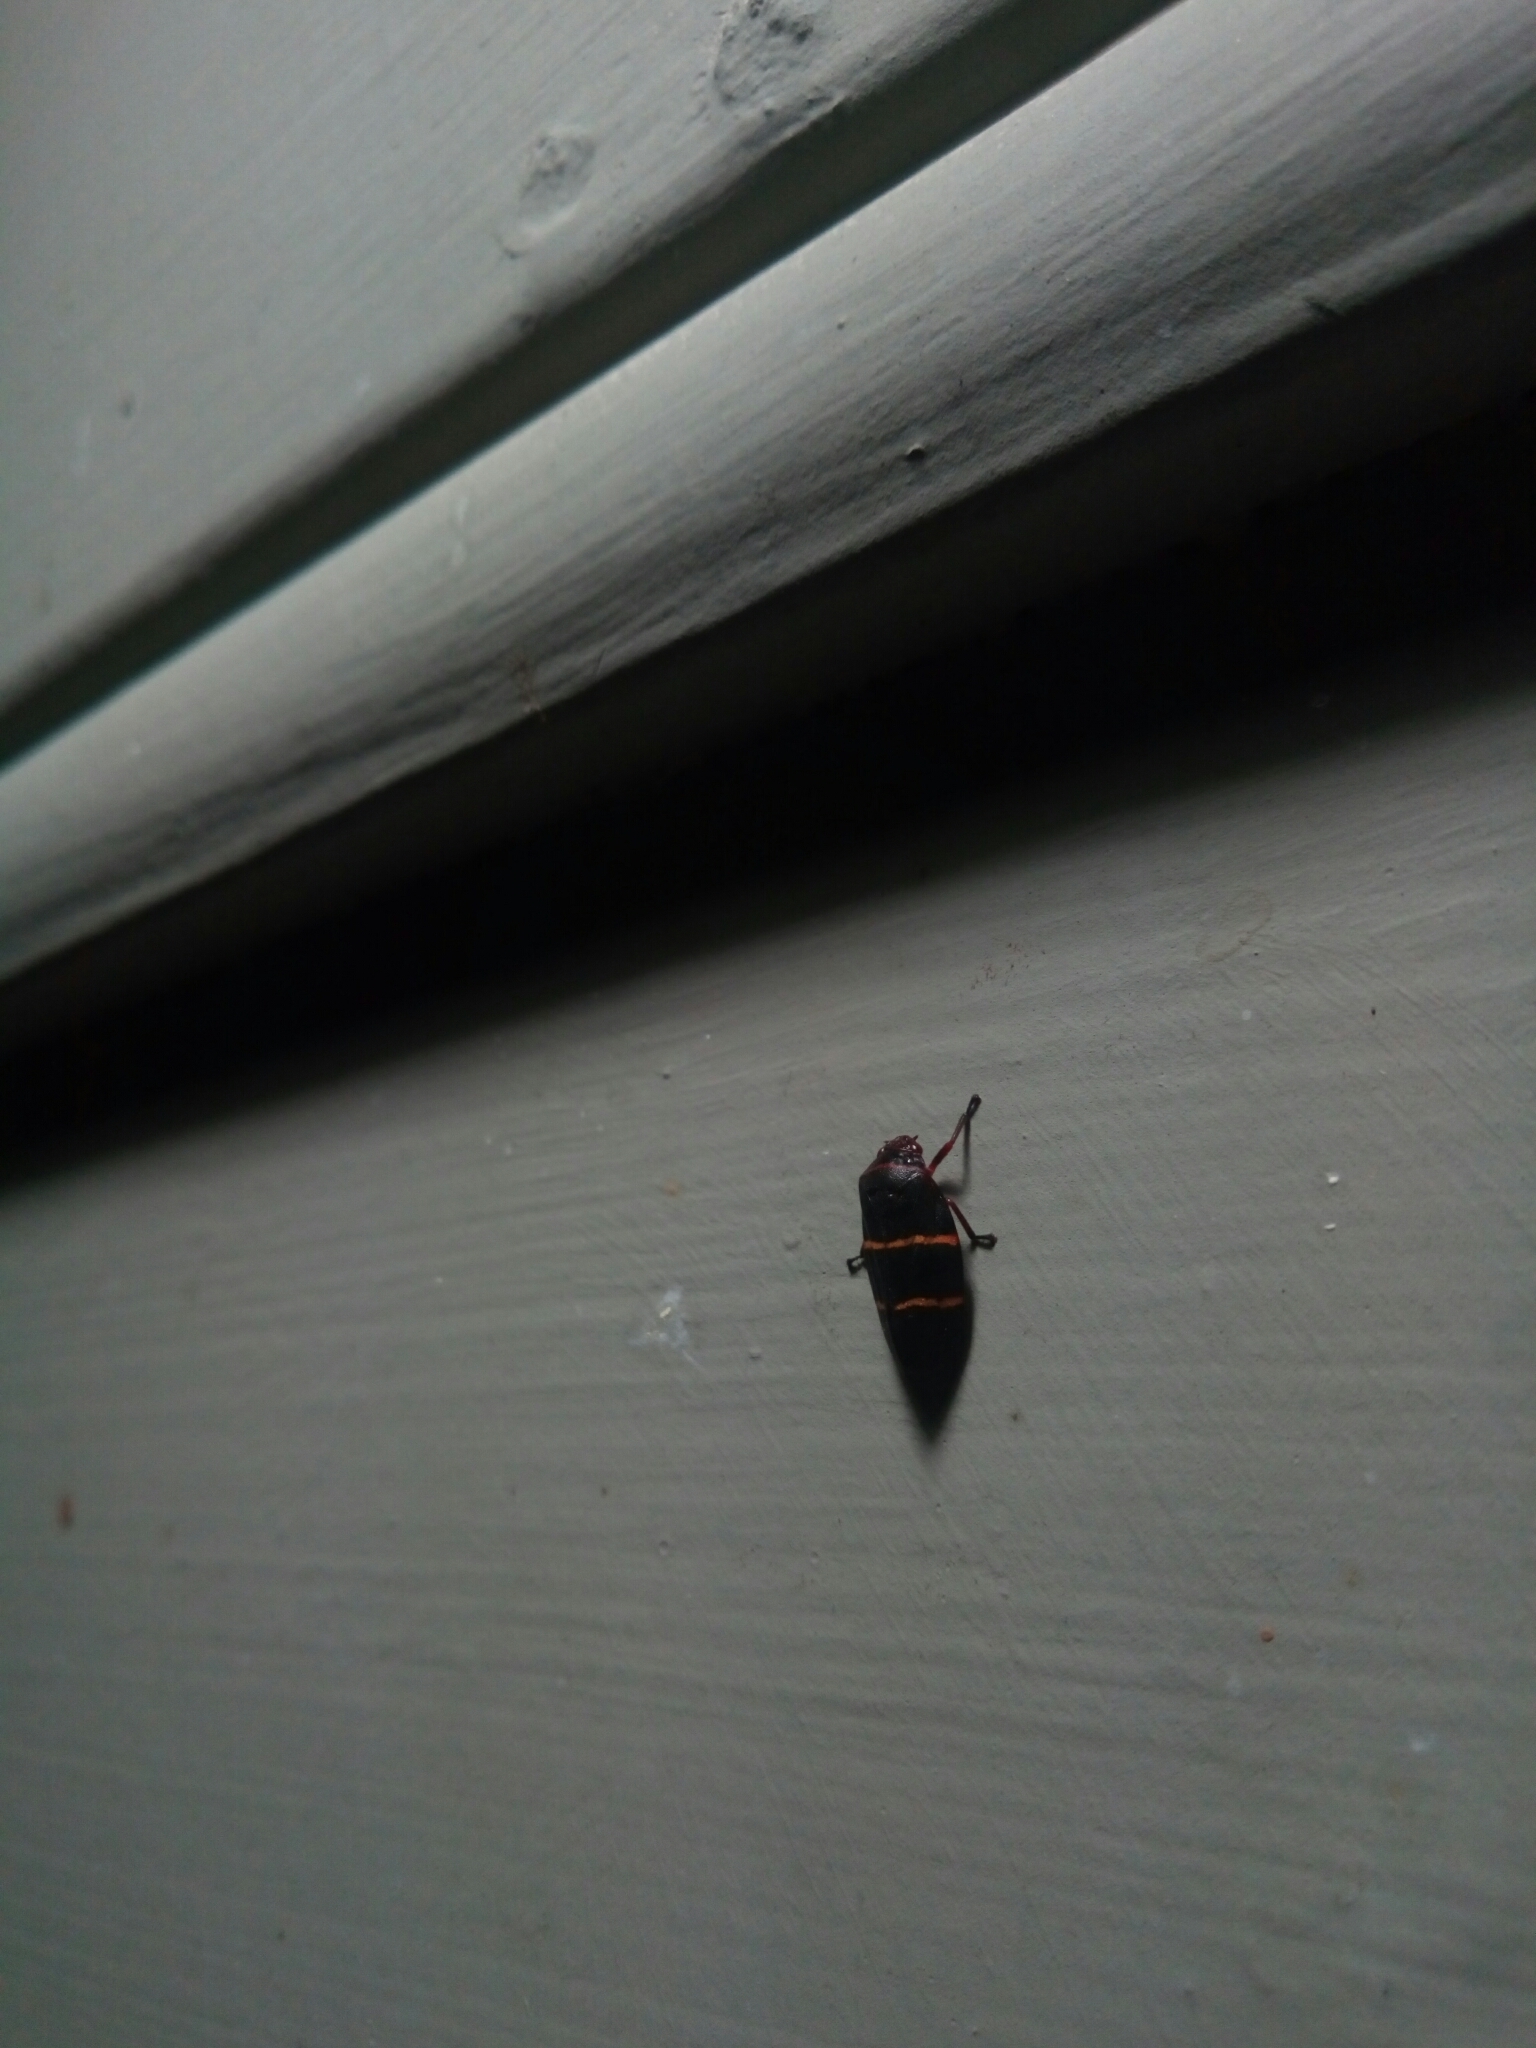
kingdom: Animalia
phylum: Arthropoda
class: Insecta
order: Hemiptera
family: Cercopidae
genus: Prosapia
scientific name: Prosapia bicincta
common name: Twolined spittlebug
